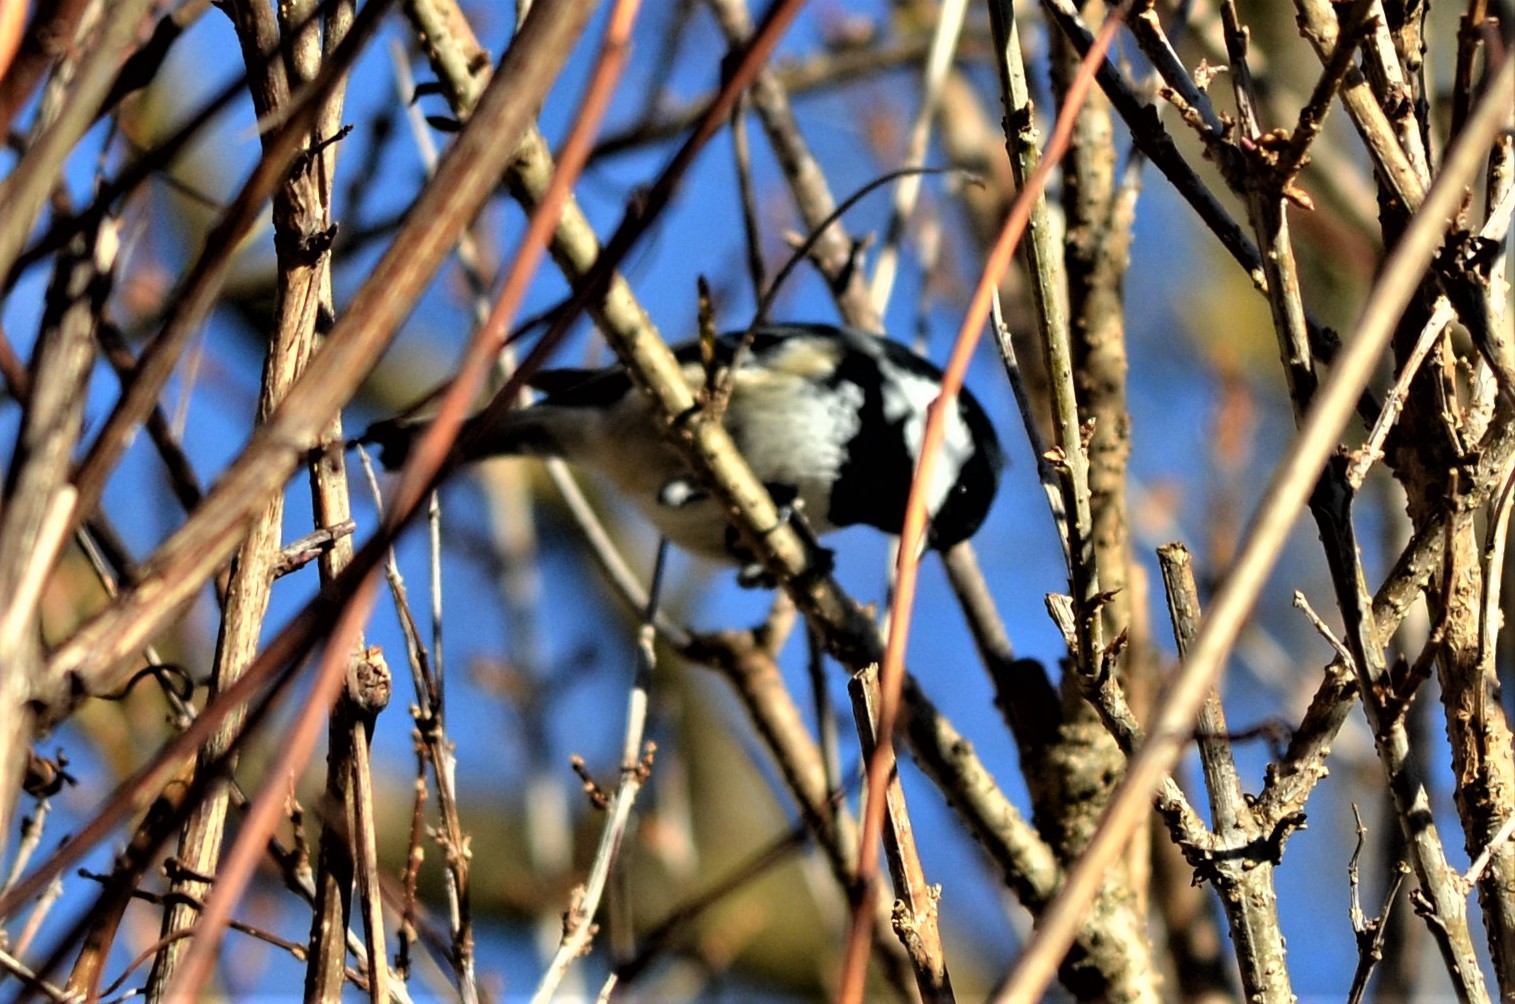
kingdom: Animalia
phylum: Chordata
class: Aves
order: Passeriformes
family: Paridae
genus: Periparus
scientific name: Periparus ater
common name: Coal tit
